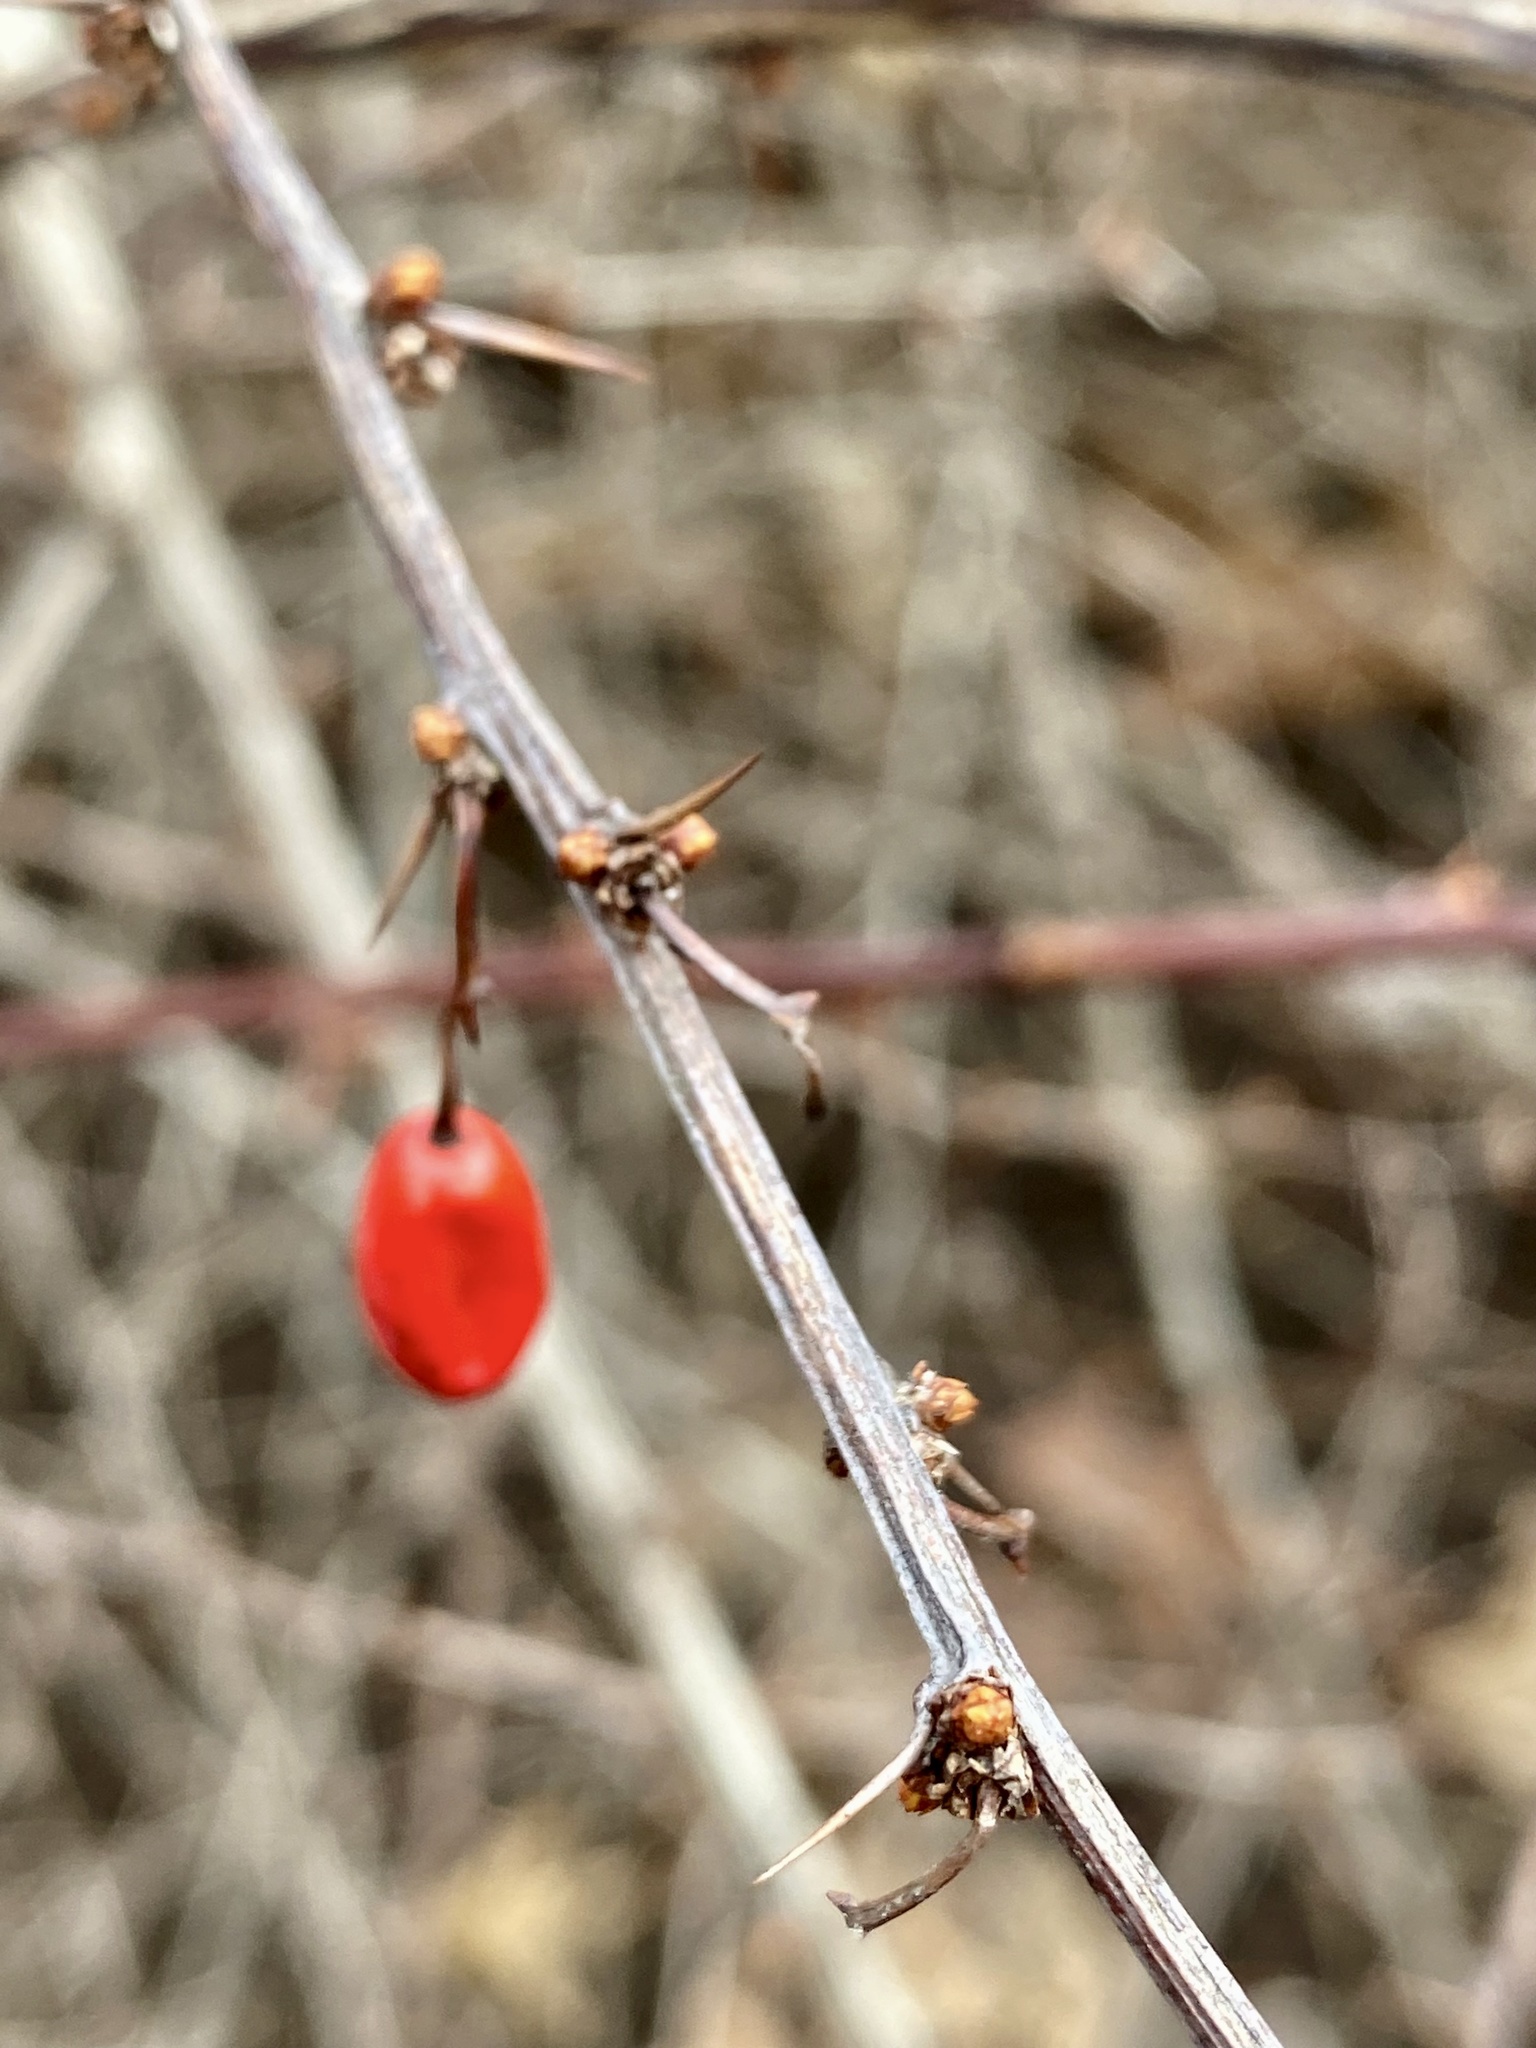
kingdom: Plantae
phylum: Tracheophyta
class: Magnoliopsida
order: Ranunculales
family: Berberidaceae
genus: Berberis
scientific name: Berberis thunbergii
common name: Japanese barberry
